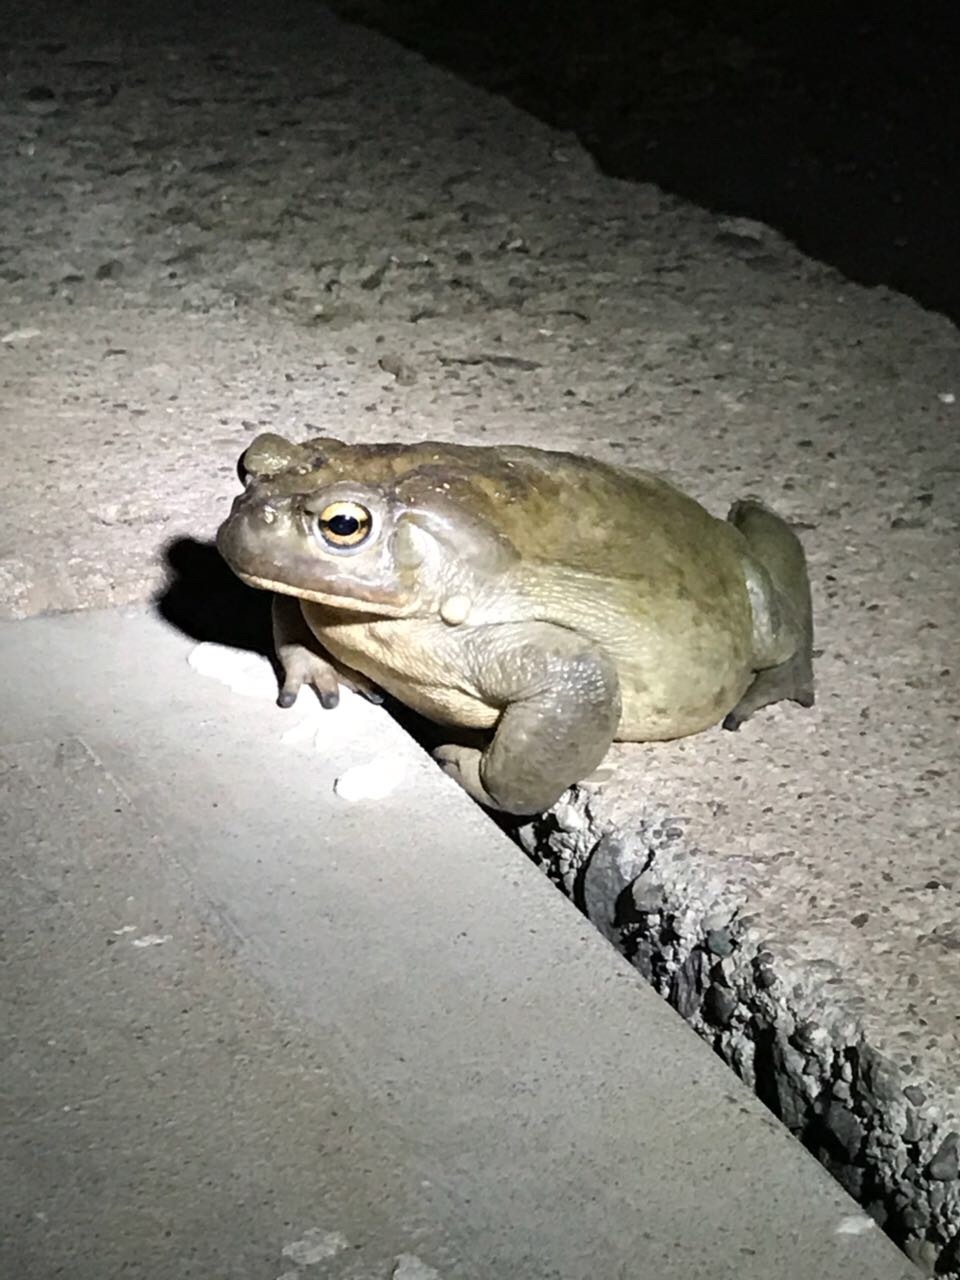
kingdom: Animalia
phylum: Chordata
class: Amphibia
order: Anura
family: Bufonidae
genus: Incilius
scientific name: Incilius alvarius
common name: Sonoran desert toad
